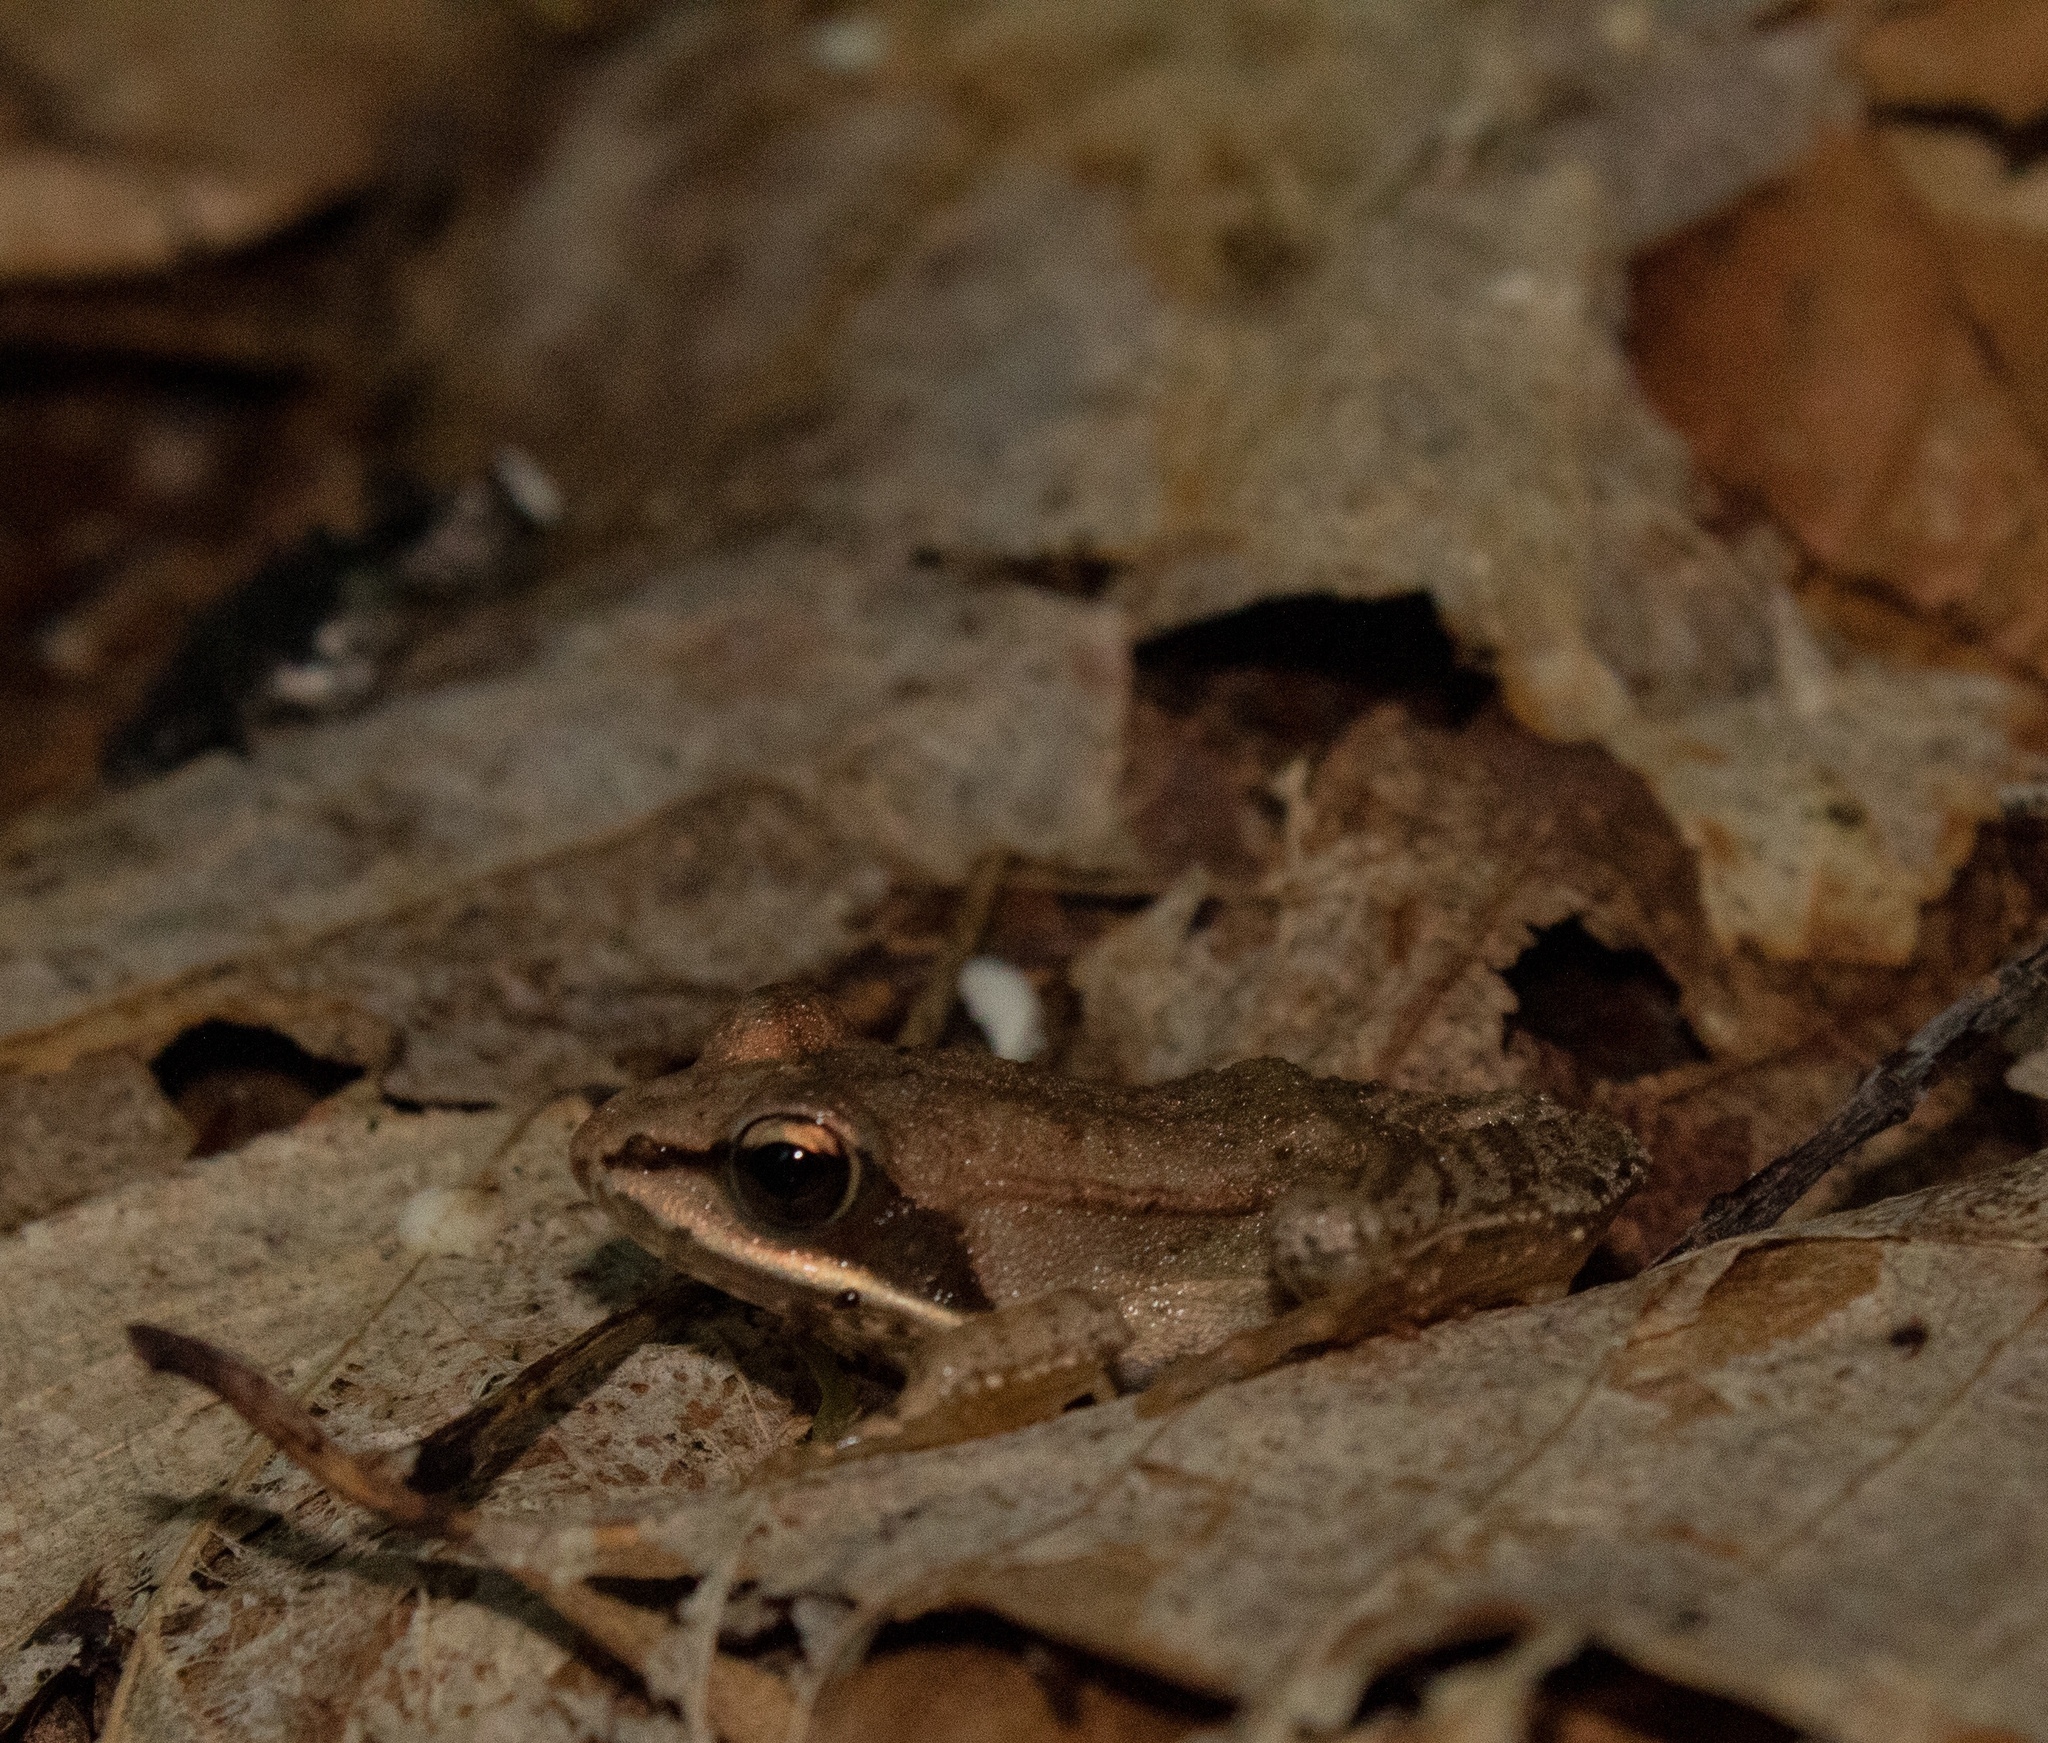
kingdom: Animalia
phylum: Chordata
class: Amphibia
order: Anura
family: Ranidae
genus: Lithobates
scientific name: Lithobates sylvaticus
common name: Wood frog
